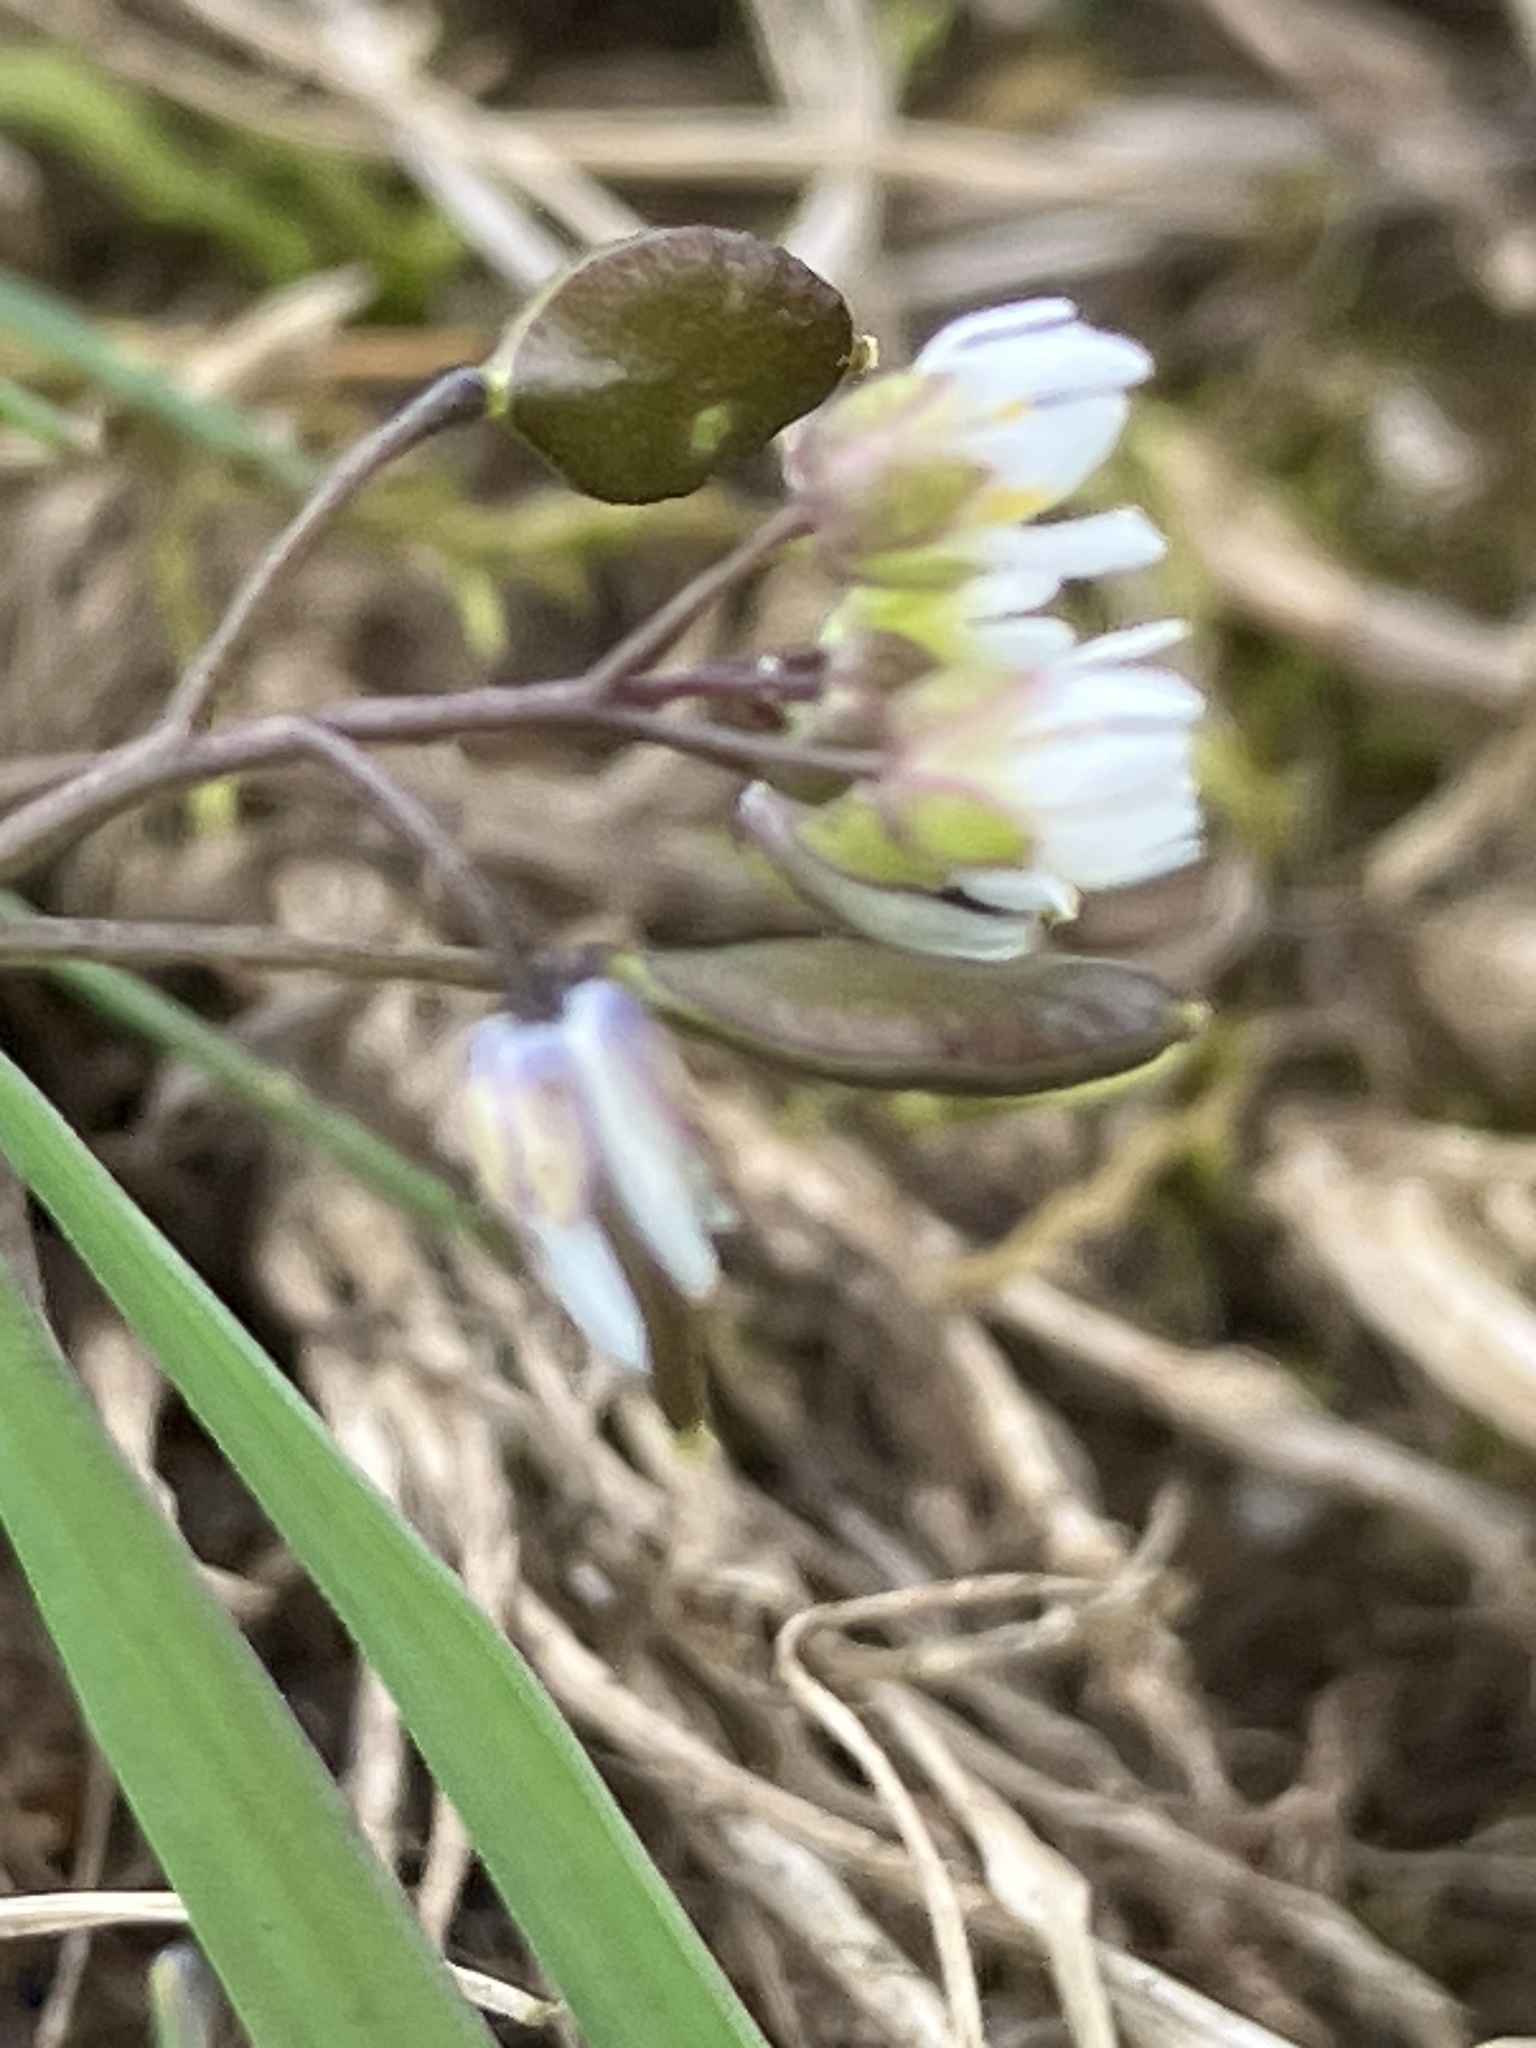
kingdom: Plantae
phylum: Tracheophyta
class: Magnoliopsida
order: Brassicales
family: Brassicaceae
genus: Draba
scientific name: Draba verna
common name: Spring draba
